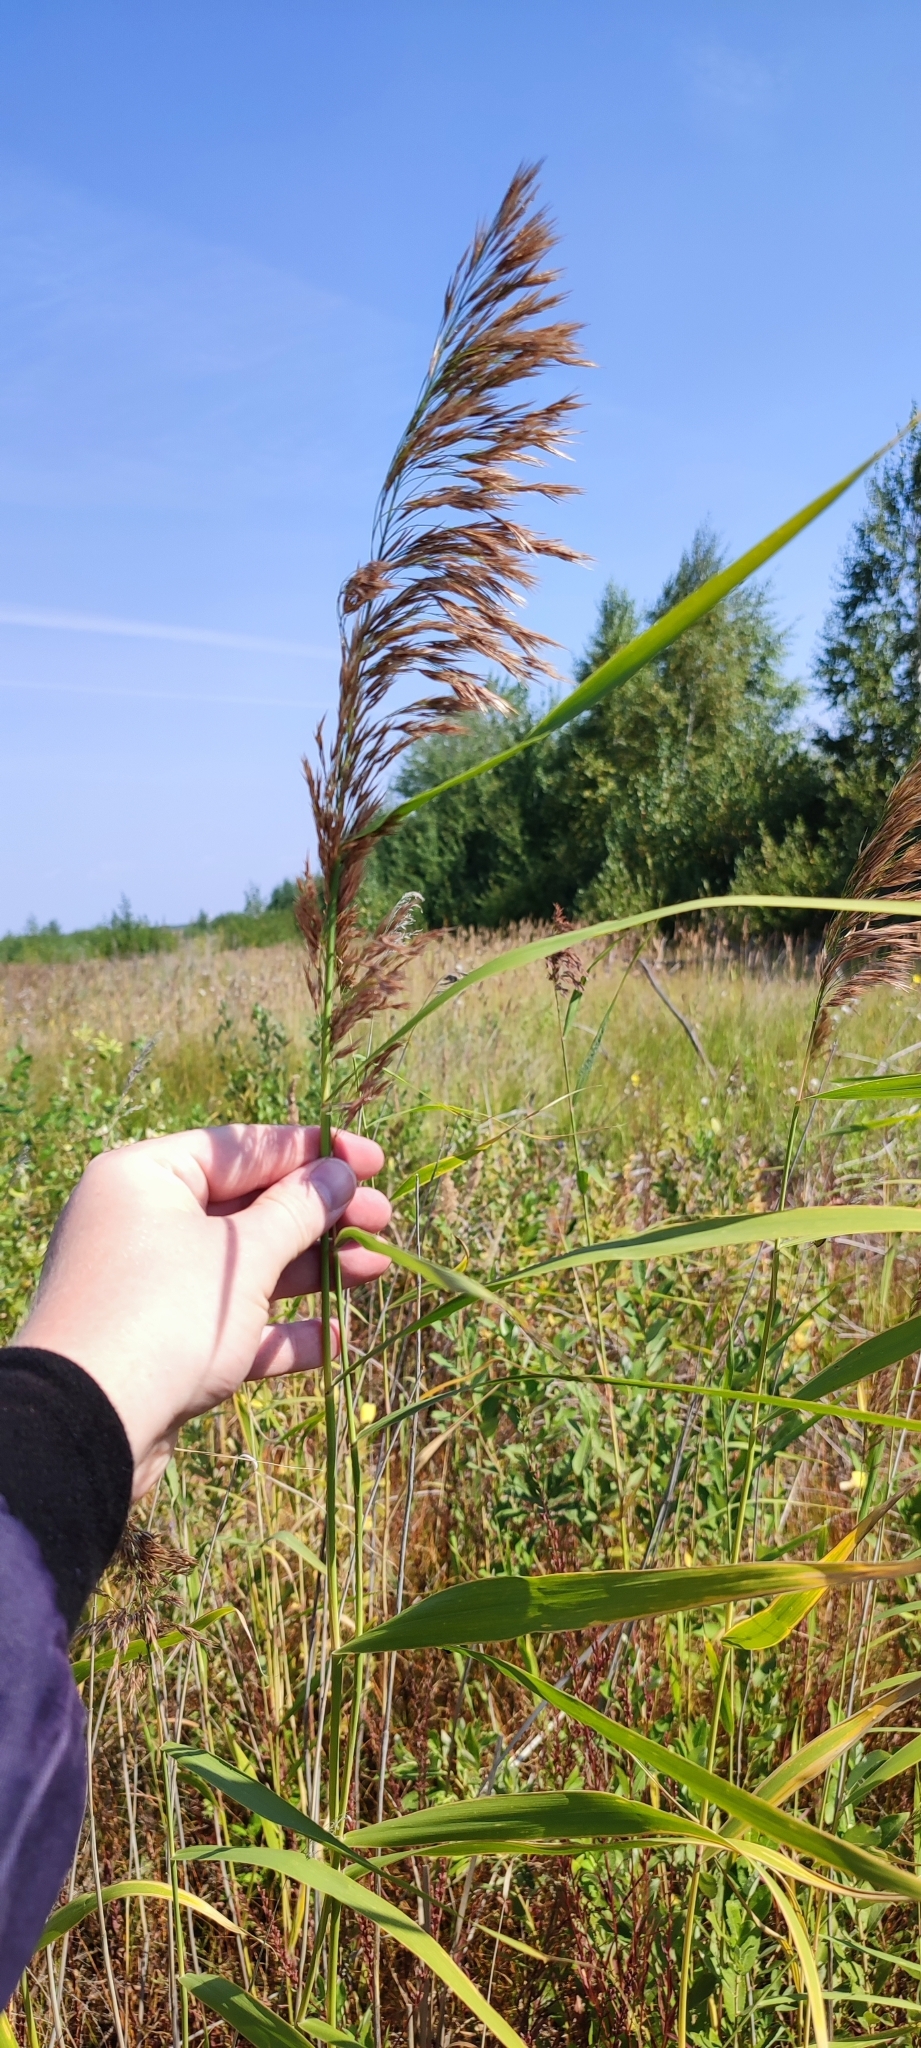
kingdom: Plantae
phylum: Tracheophyta
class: Liliopsida
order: Poales
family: Poaceae
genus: Phragmites
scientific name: Phragmites australis
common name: Common reed
